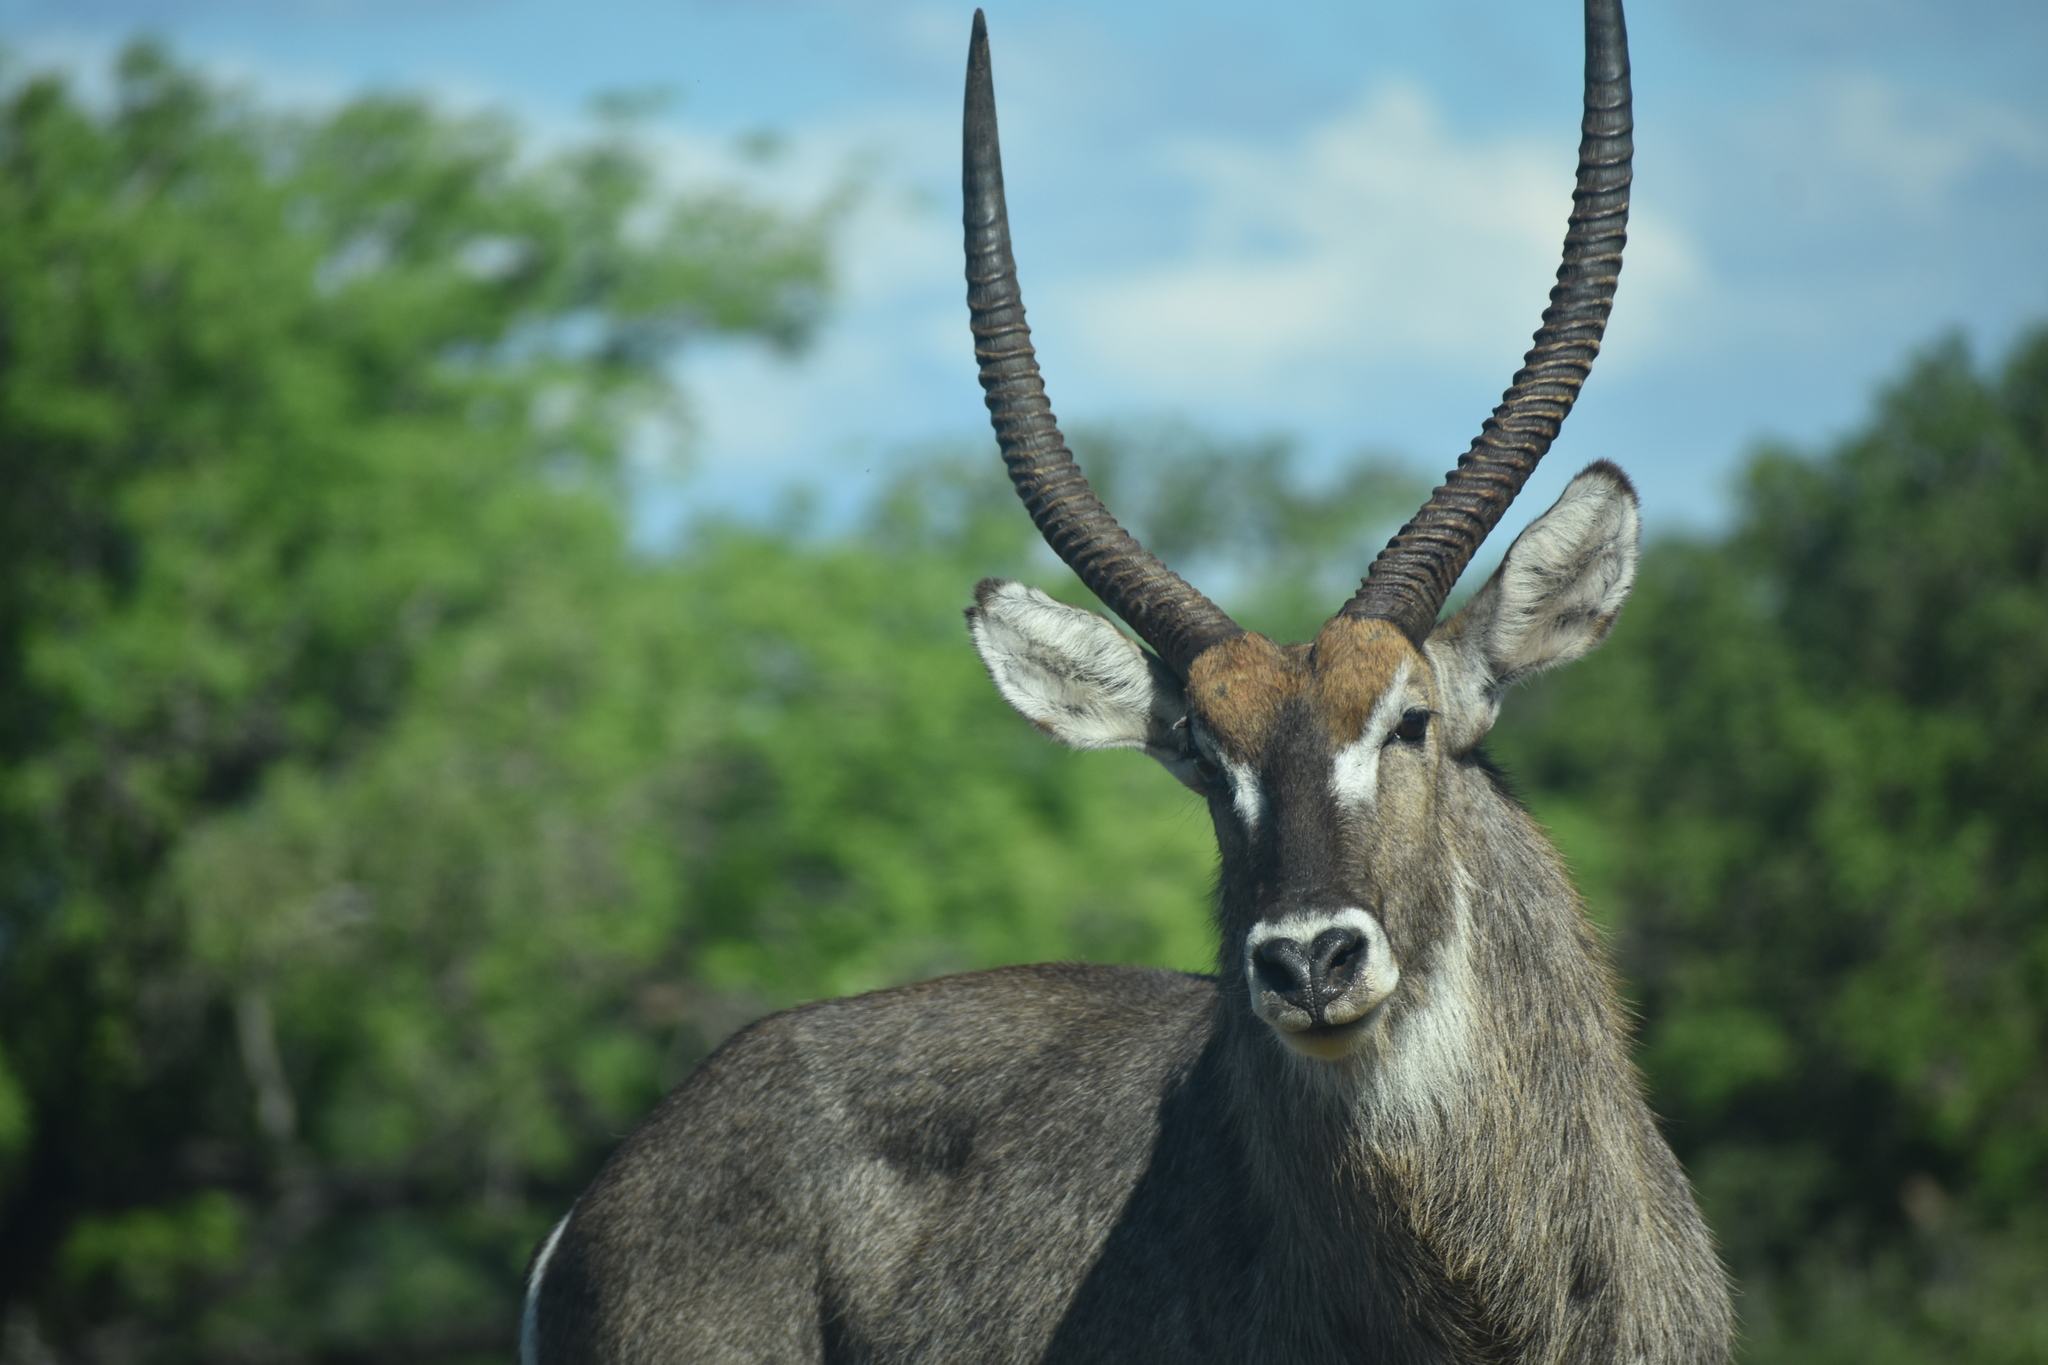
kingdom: Animalia
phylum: Chordata
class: Mammalia
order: Artiodactyla
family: Bovidae
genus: Kobus
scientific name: Kobus ellipsiprymnus
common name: Waterbuck
